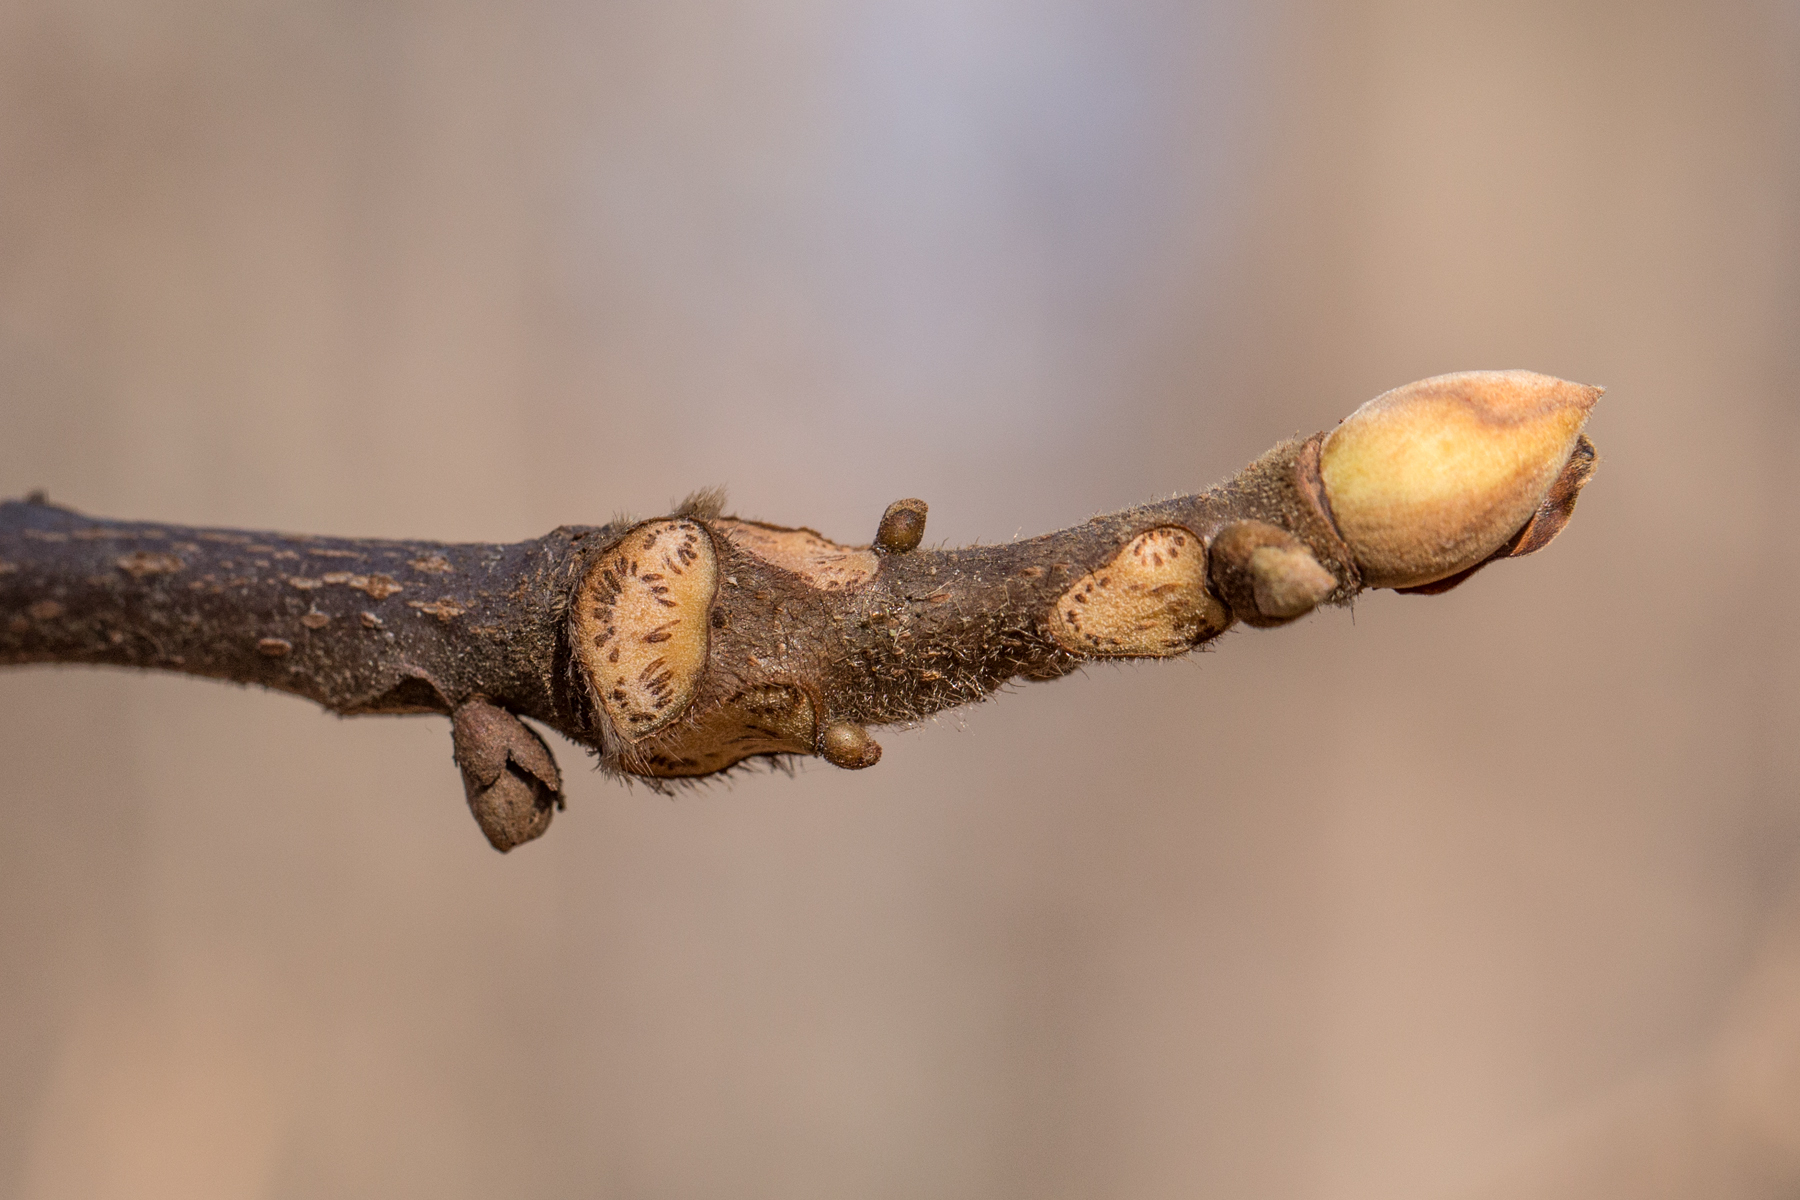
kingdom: Plantae
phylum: Tracheophyta
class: Magnoliopsida
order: Fagales
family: Juglandaceae
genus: Carya
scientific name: Carya alba
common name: Mockernut hickory
